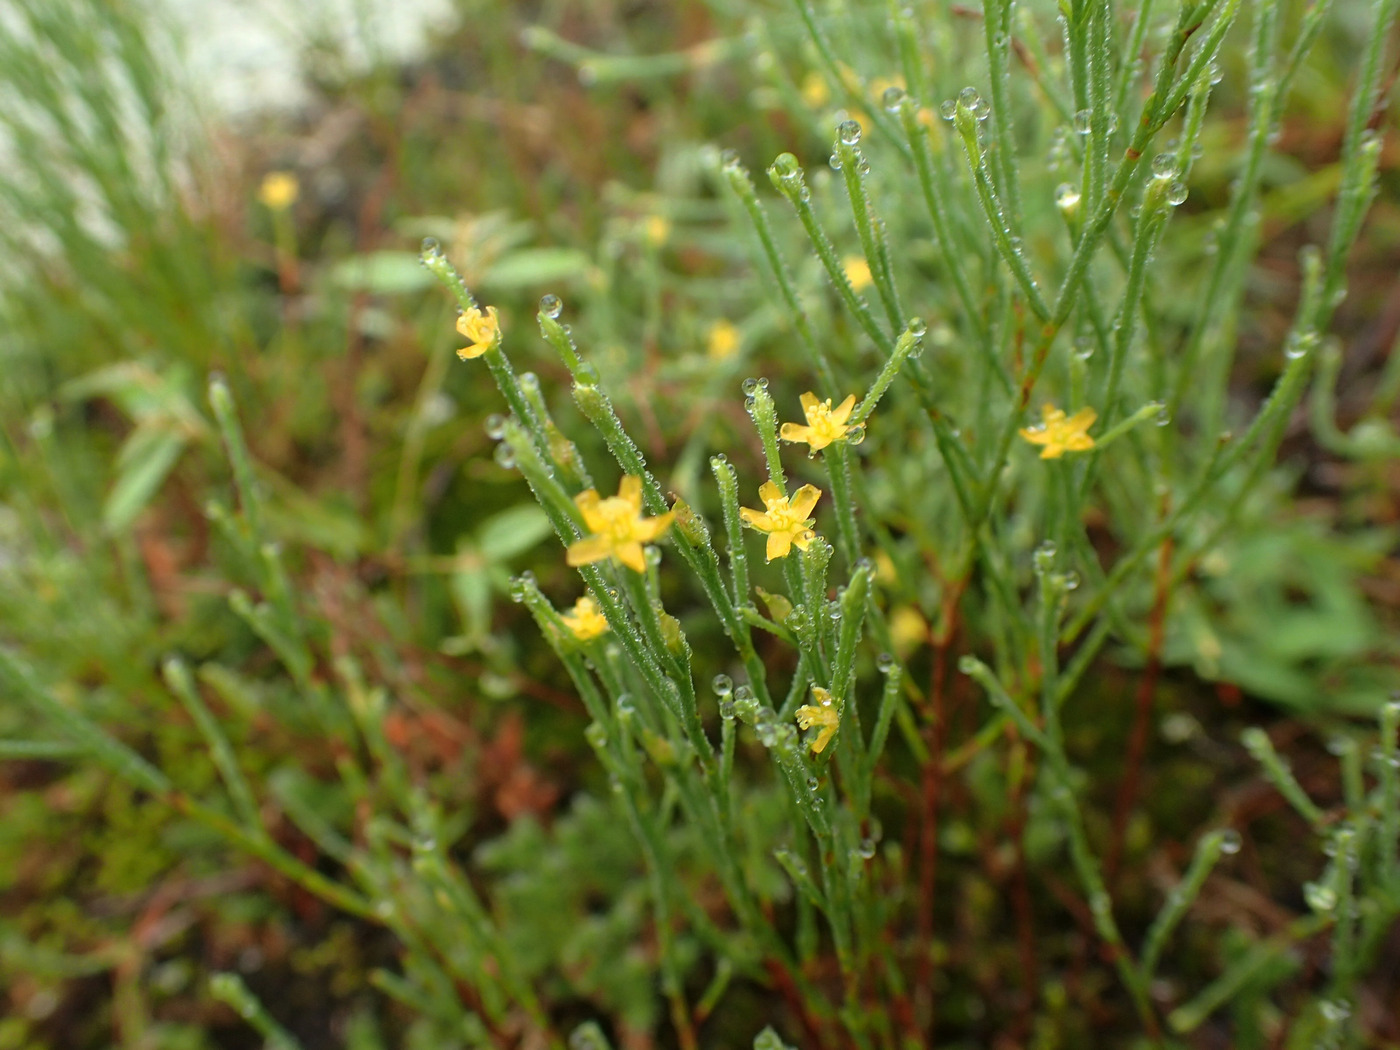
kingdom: Plantae
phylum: Tracheophyta
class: Magnoliopsida
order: Malpighiales
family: Hypericaceae
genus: Hypericum
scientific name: Hypericum gentianoides
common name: Gentian-leaved st. john's-wort
